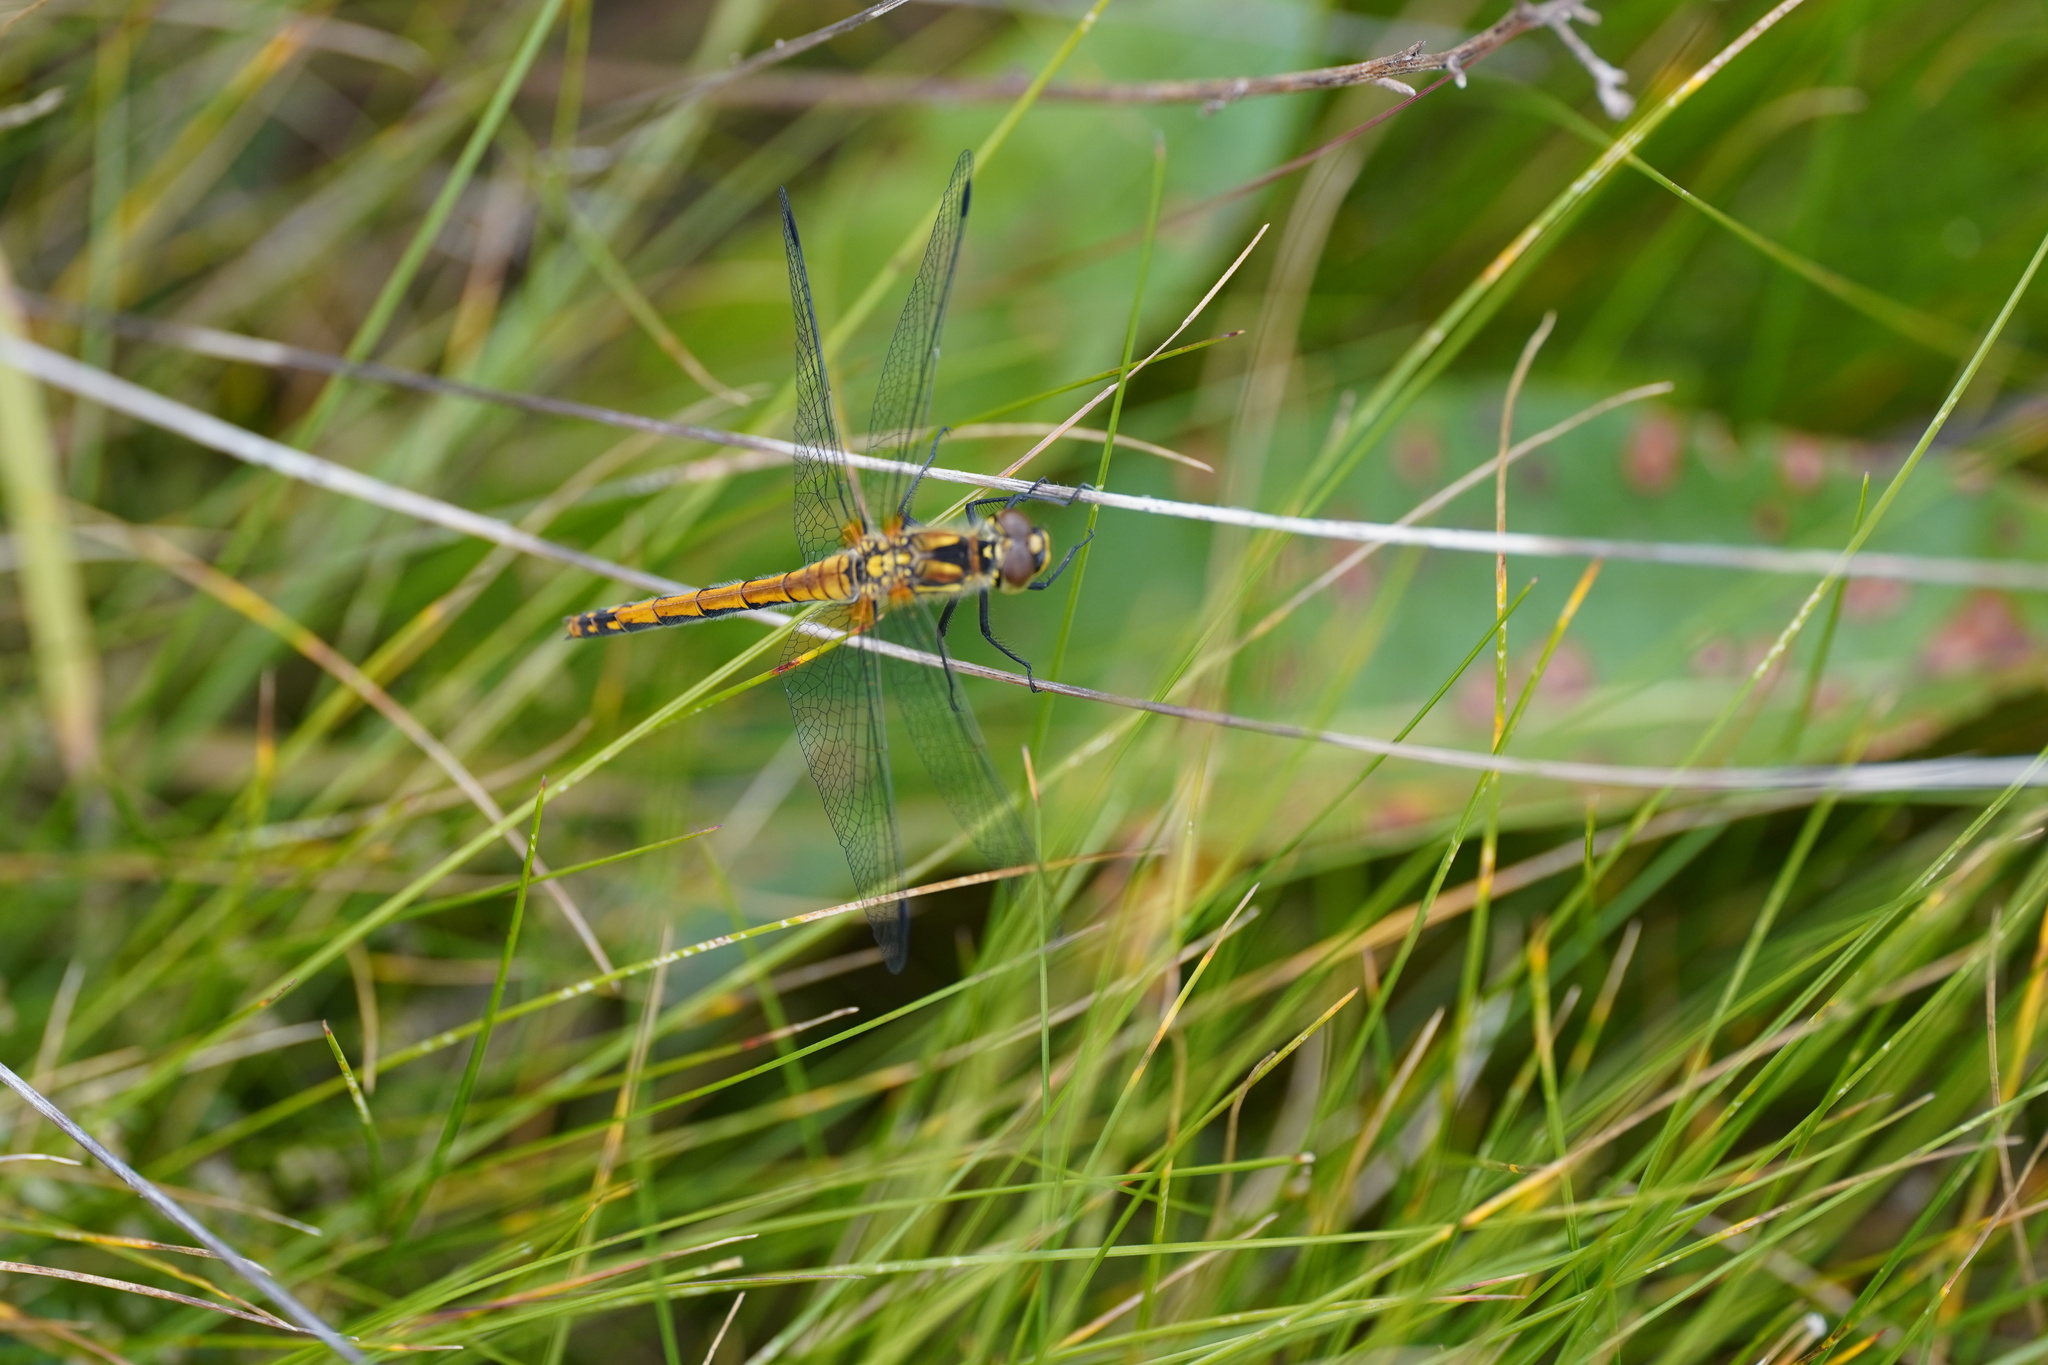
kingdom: Animalia
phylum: Arthropoda
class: Insecta
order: Odonata
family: Libellulidae
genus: Sympetrum
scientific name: Sympetrum danae
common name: Black darter
